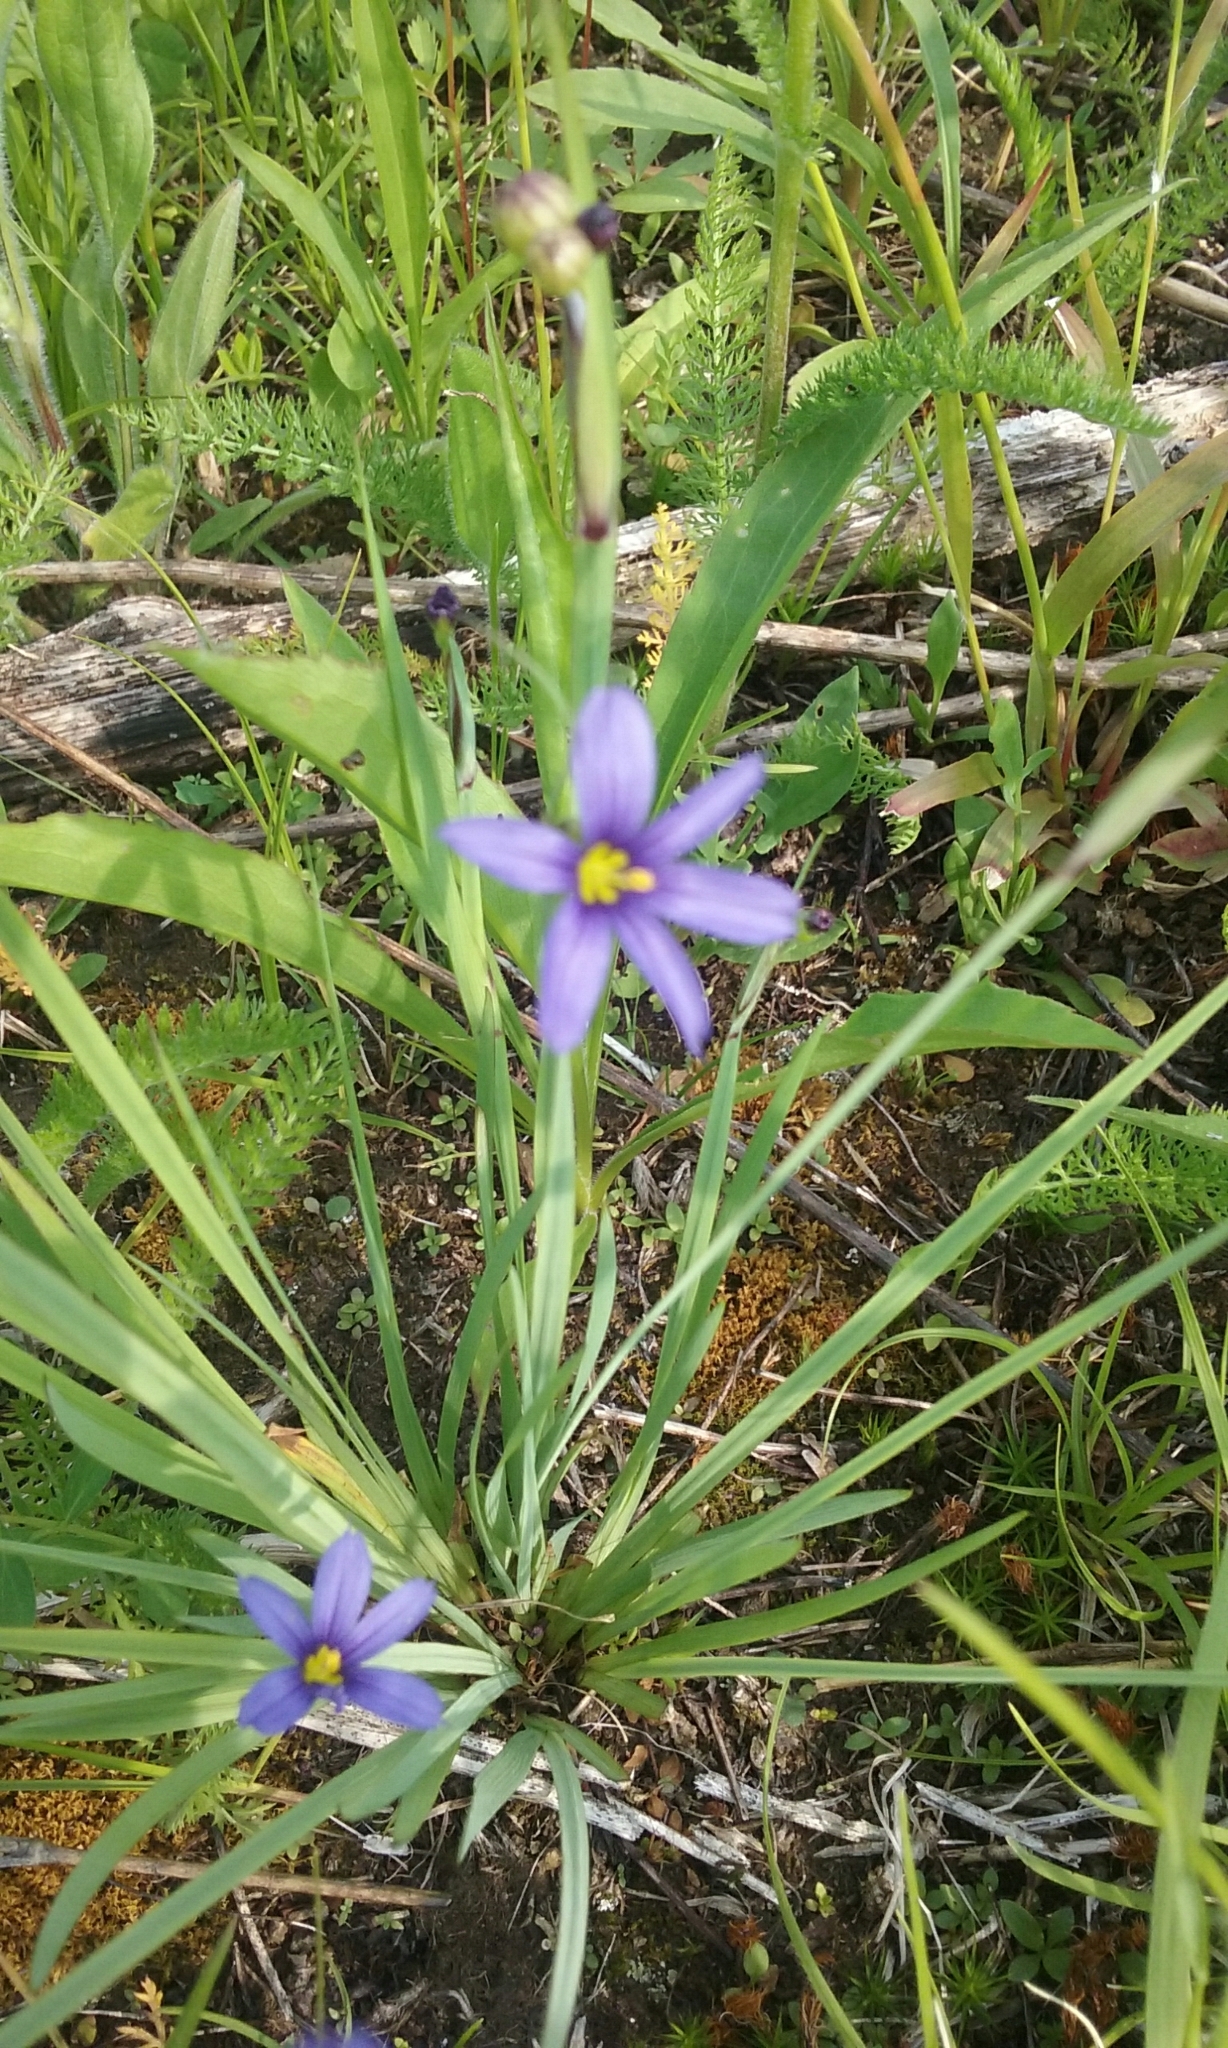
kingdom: Plantae
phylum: Tracheophyta
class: Liliopsida
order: Asparagales
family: Iridaceae
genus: Sisyrinchium
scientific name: Sisyrinchium montanum
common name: American blue-eyed-grass
